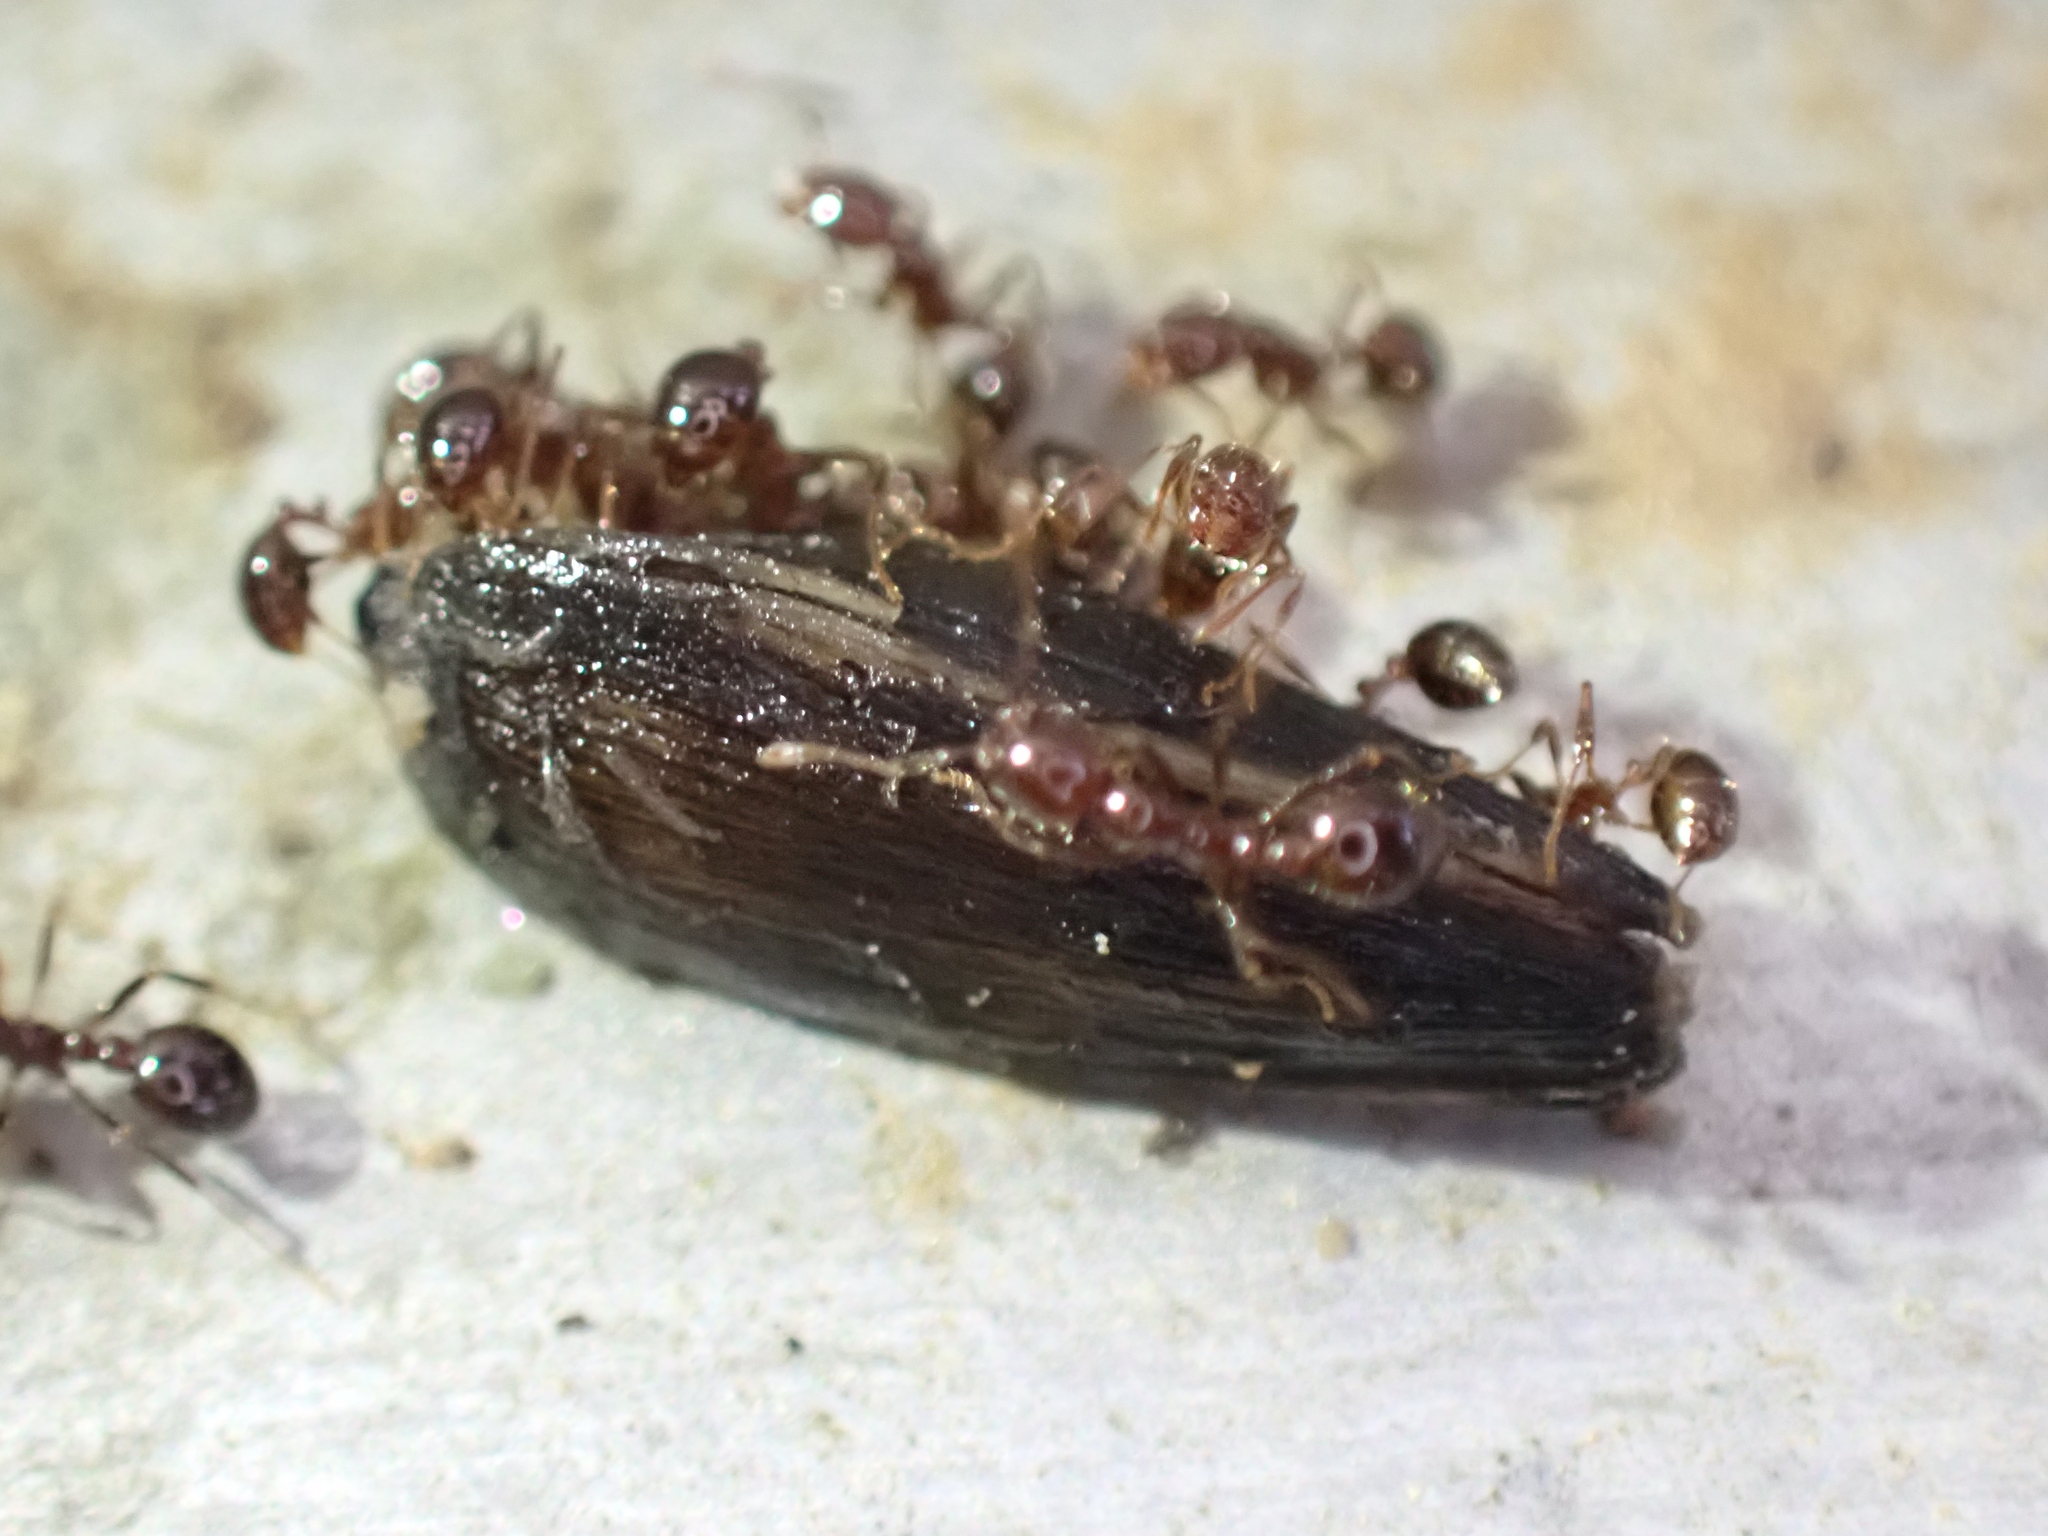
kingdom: Animalia
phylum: Arthropoda
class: Insecta
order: Hymenoptera
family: Formicidae
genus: Solenopsis
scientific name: Solenopsis
